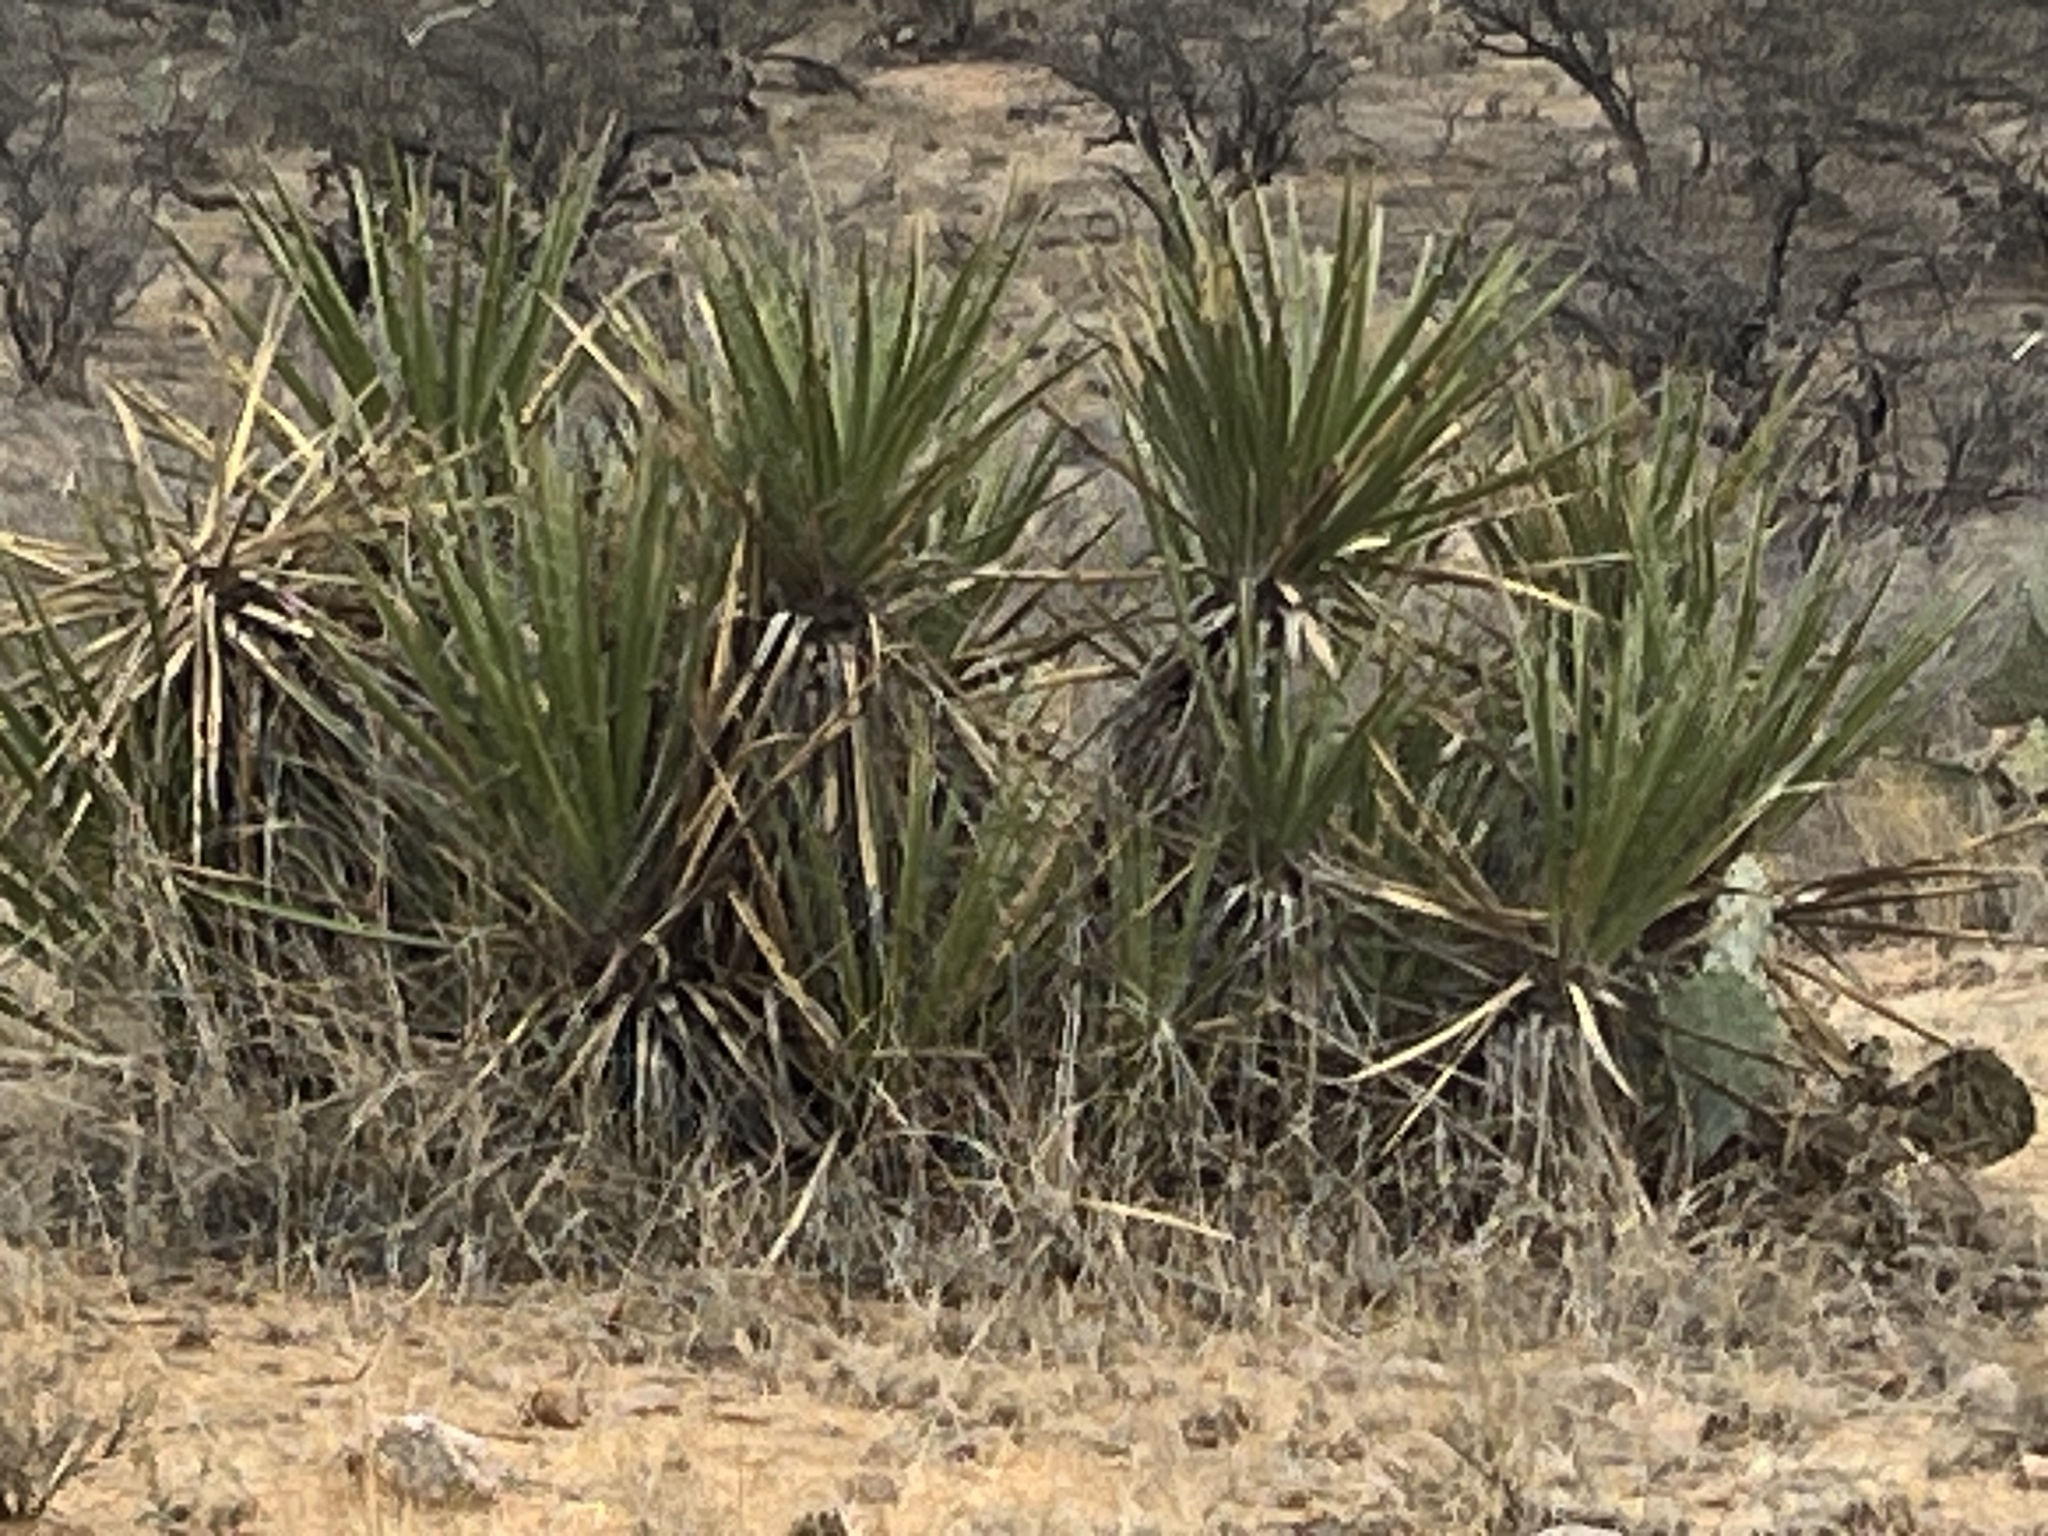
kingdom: Plantae
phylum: Tracheophyta
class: Liliopsida
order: Asparagales
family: Asparagaceae
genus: Yucca
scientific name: Yucca baccata
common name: Banana yucca
